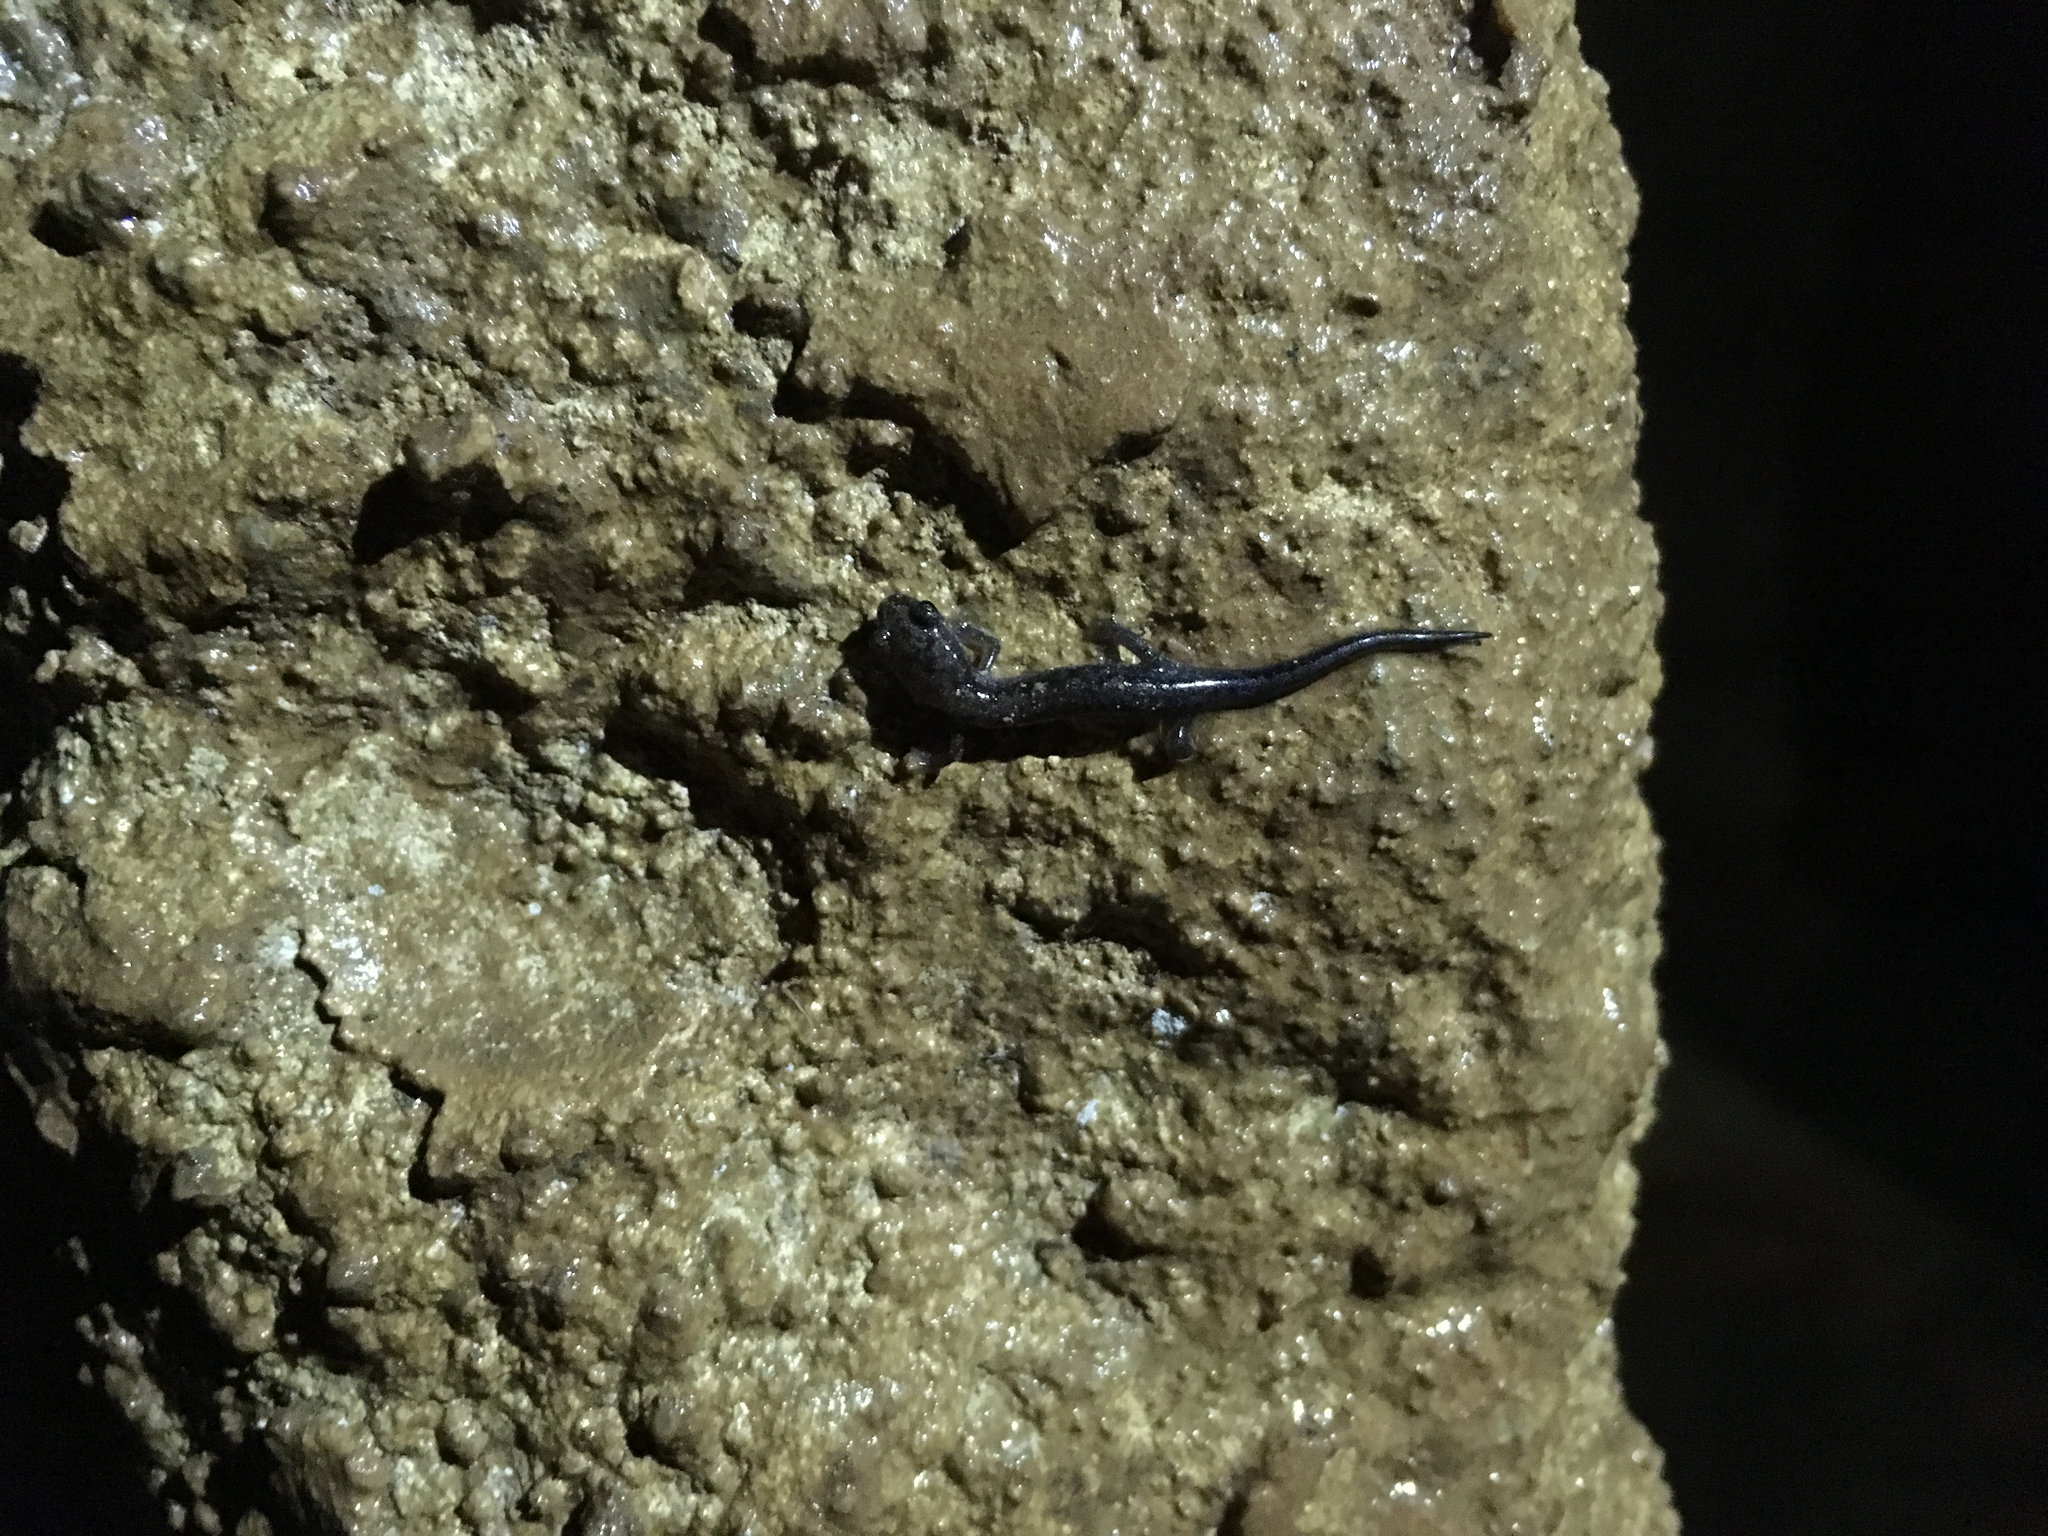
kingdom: Animalia
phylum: Chordata
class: Amphibia
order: Caudata
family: Plethodontidae
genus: Plethodon
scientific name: Plethodon ventralis
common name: Southern zigzag salamander
